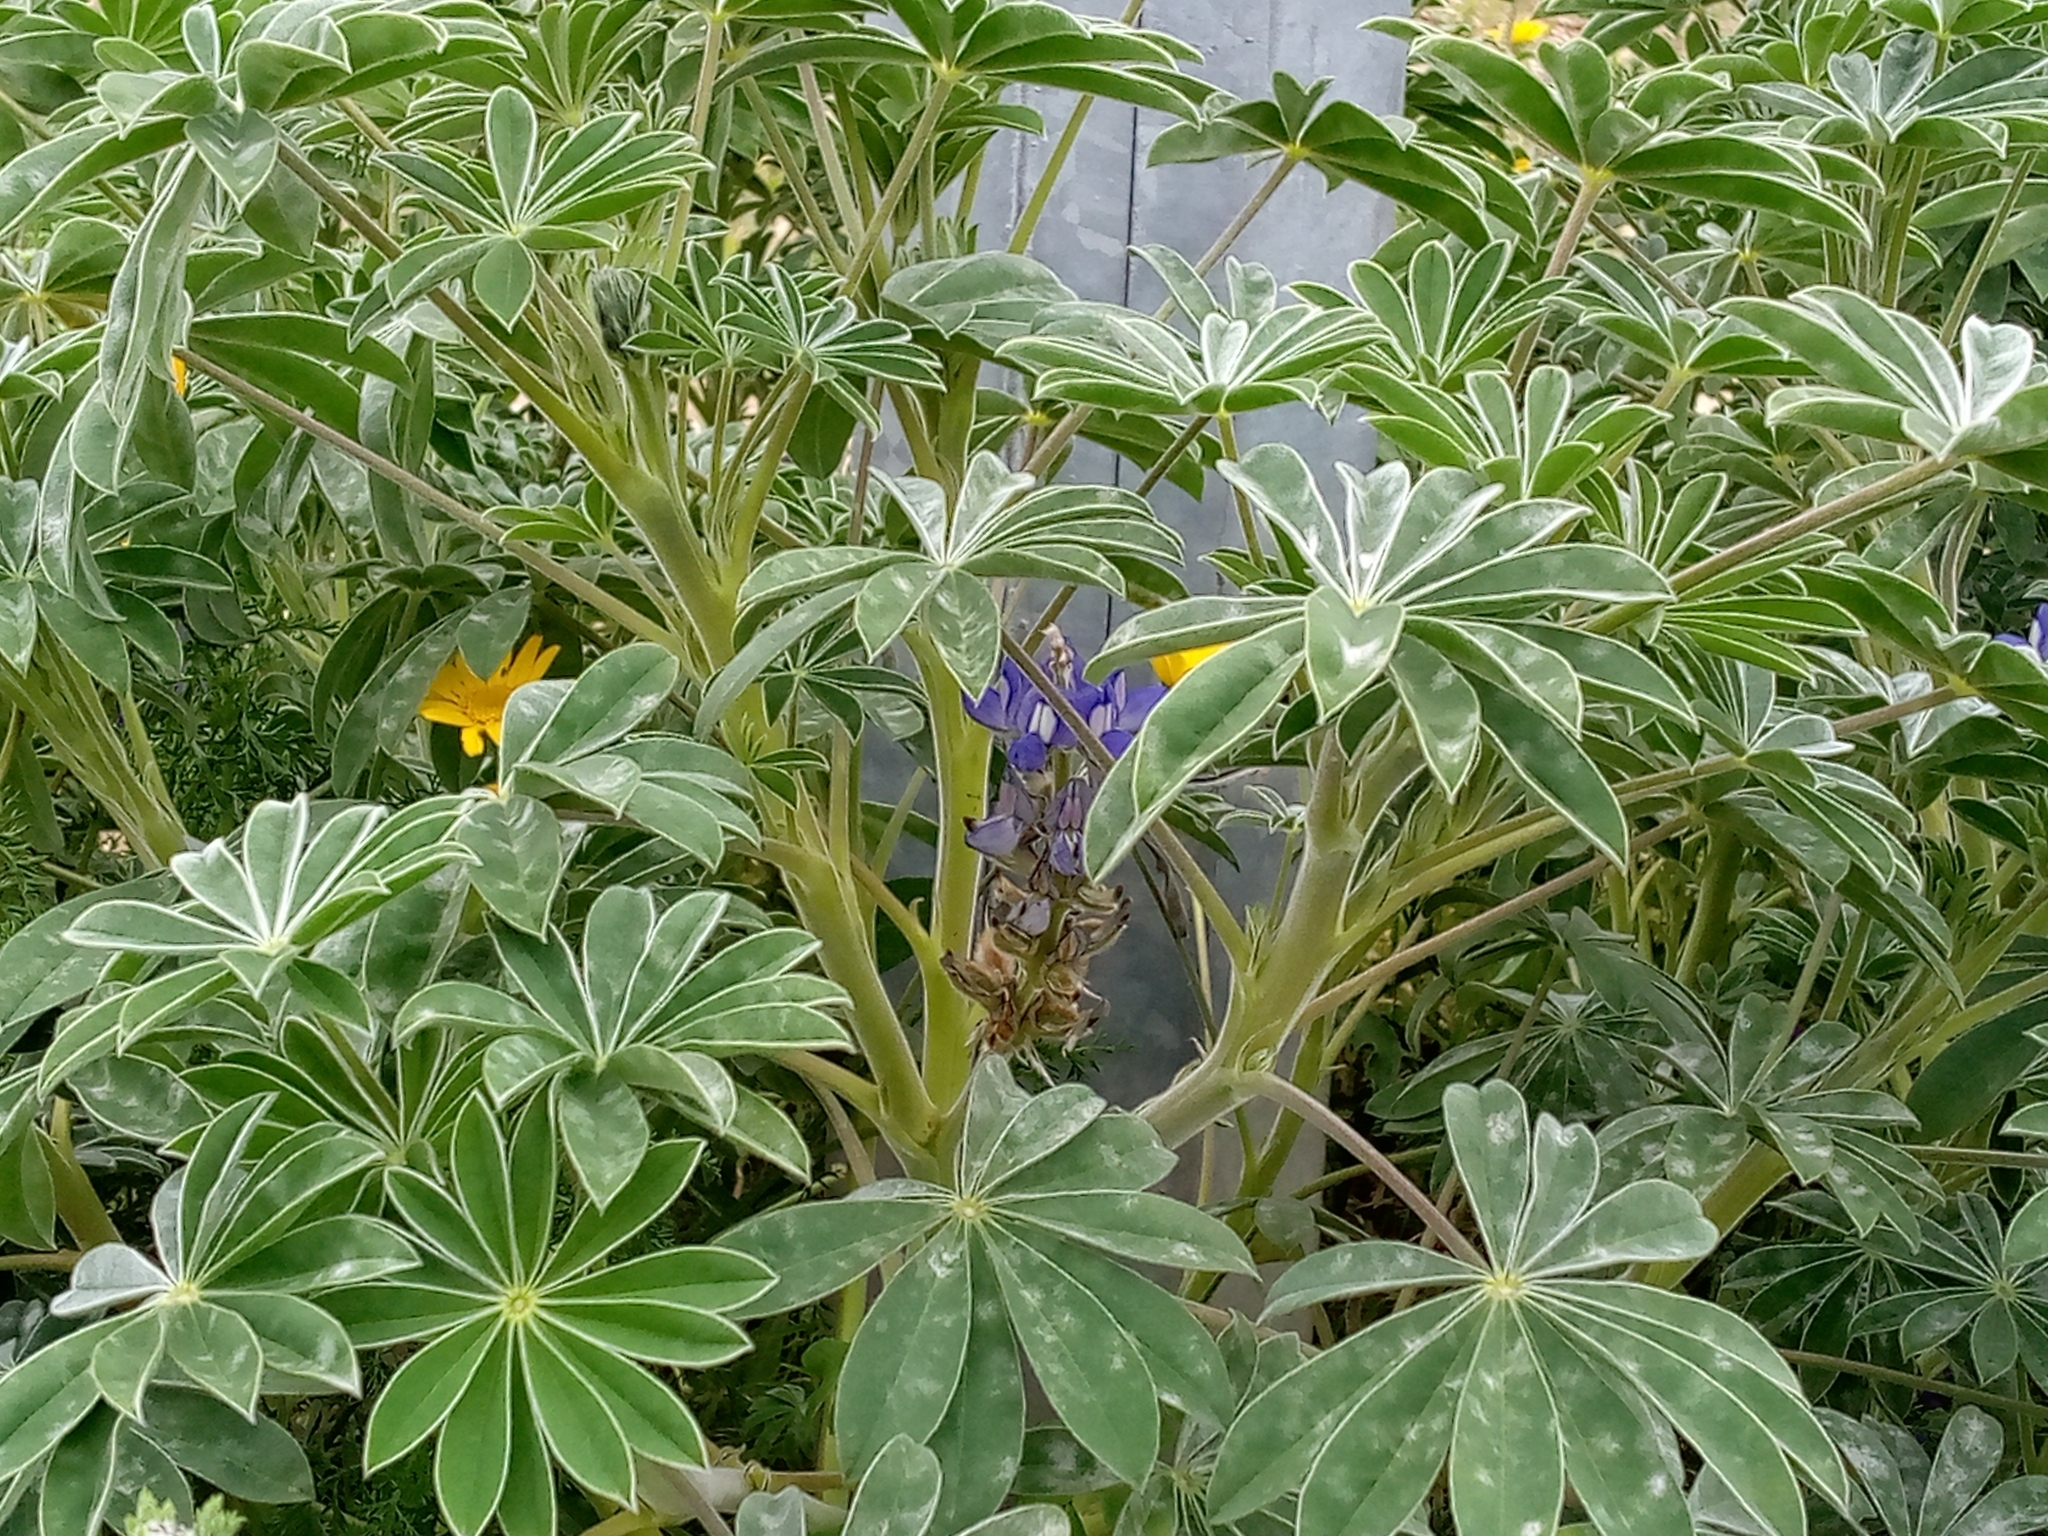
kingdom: Plantae
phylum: Tracheophyta
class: Magnoliopsida
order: Fabales
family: Fabaceae
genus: Lupinus
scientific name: Lupinus cosentinii
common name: Hairy blue lupin
